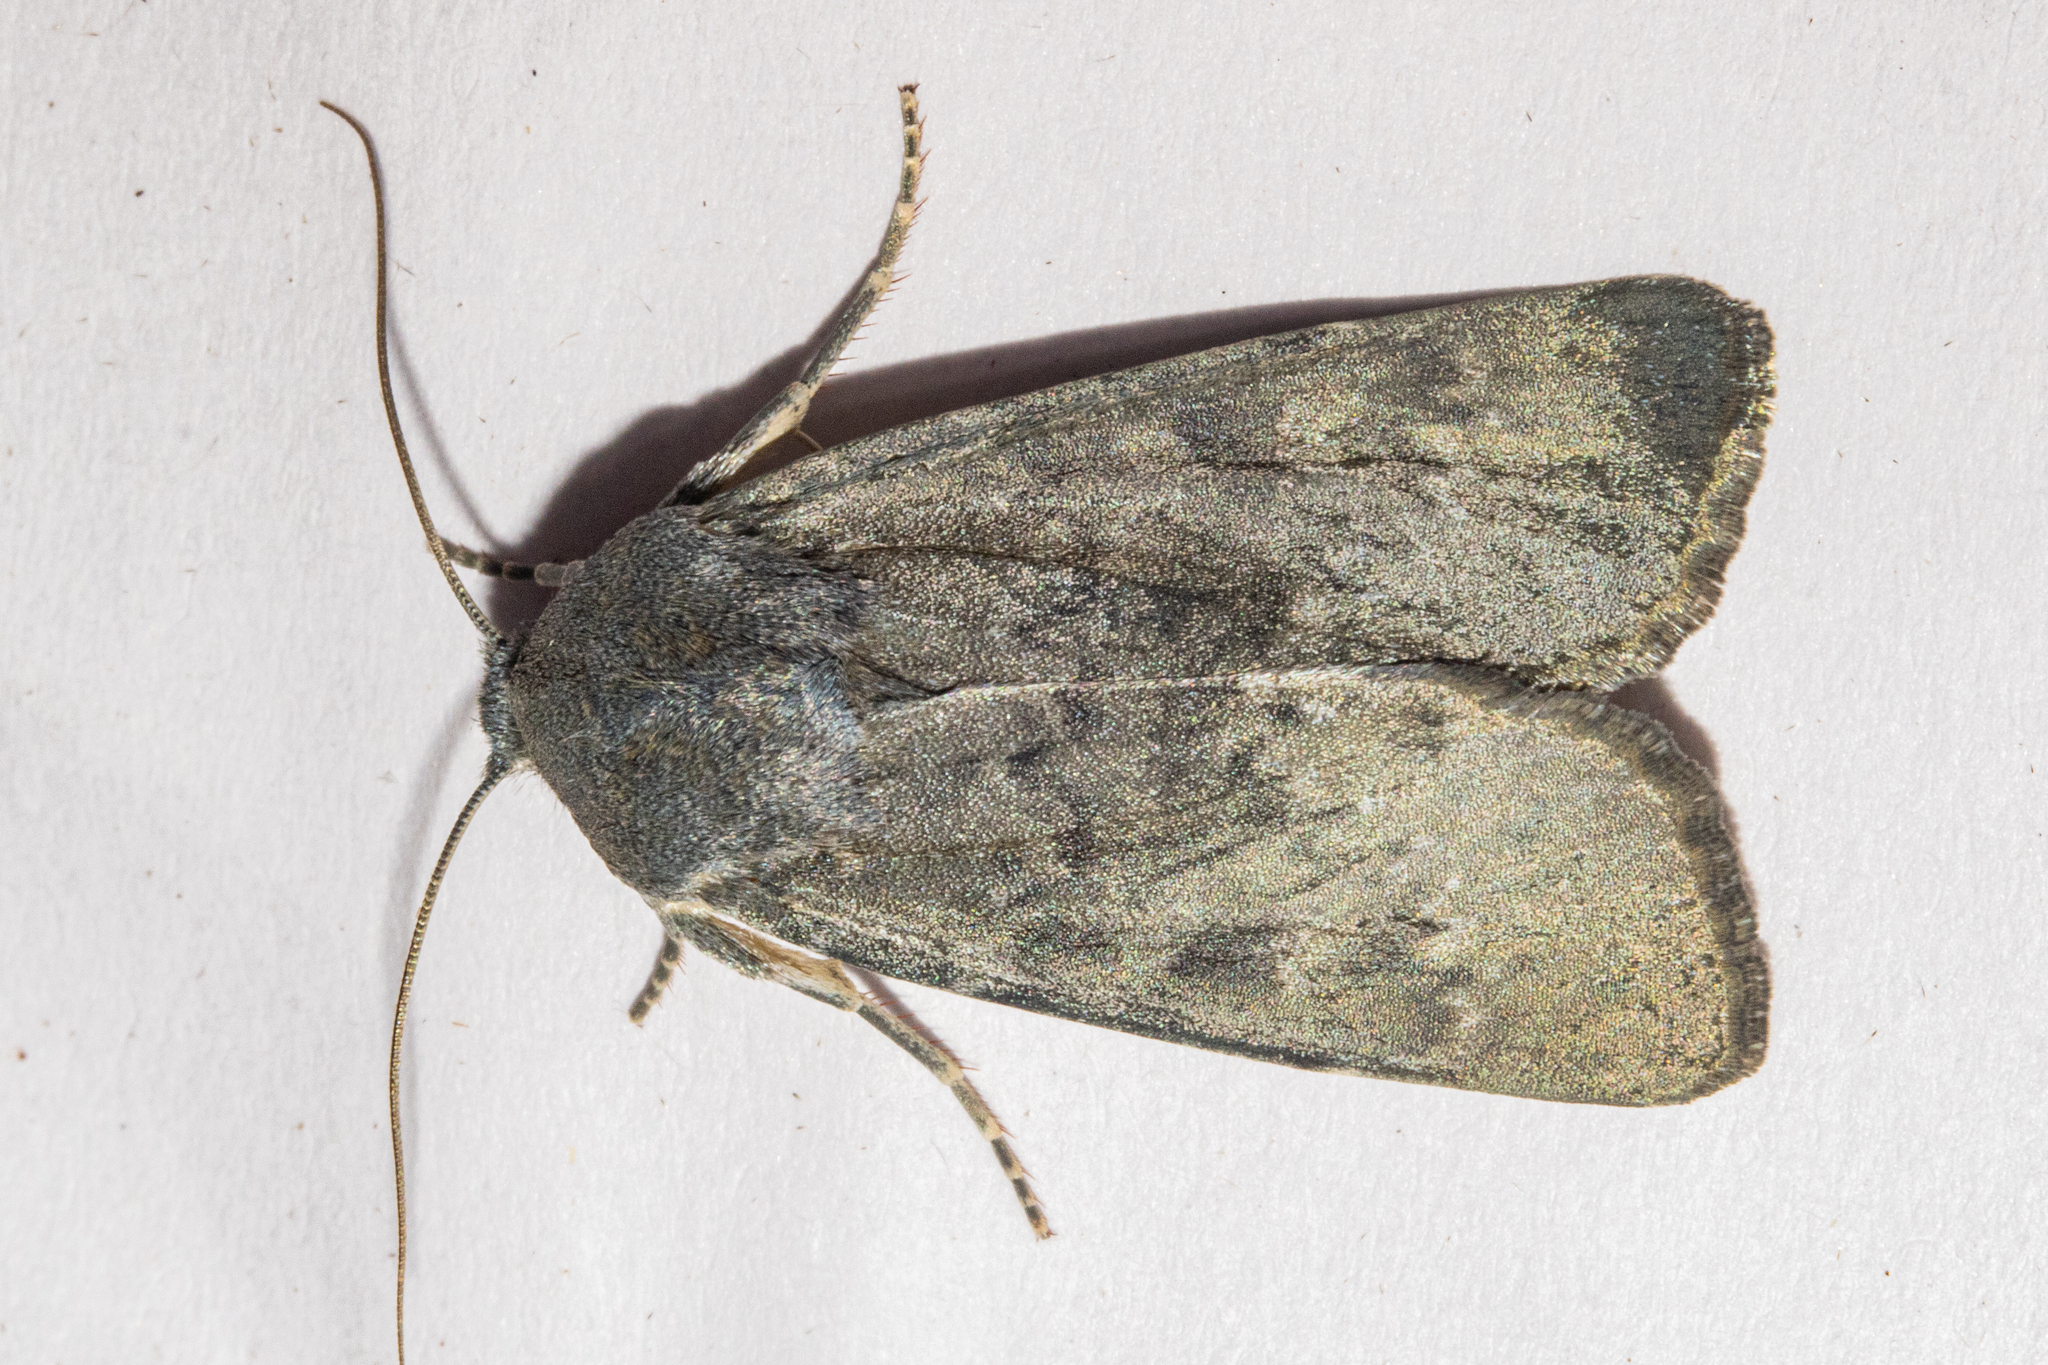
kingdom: Animalia
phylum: Arthropoda
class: Insecta
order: Lepidoptera
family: Noctuidae
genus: Physetica
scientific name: Physetica caerulea
